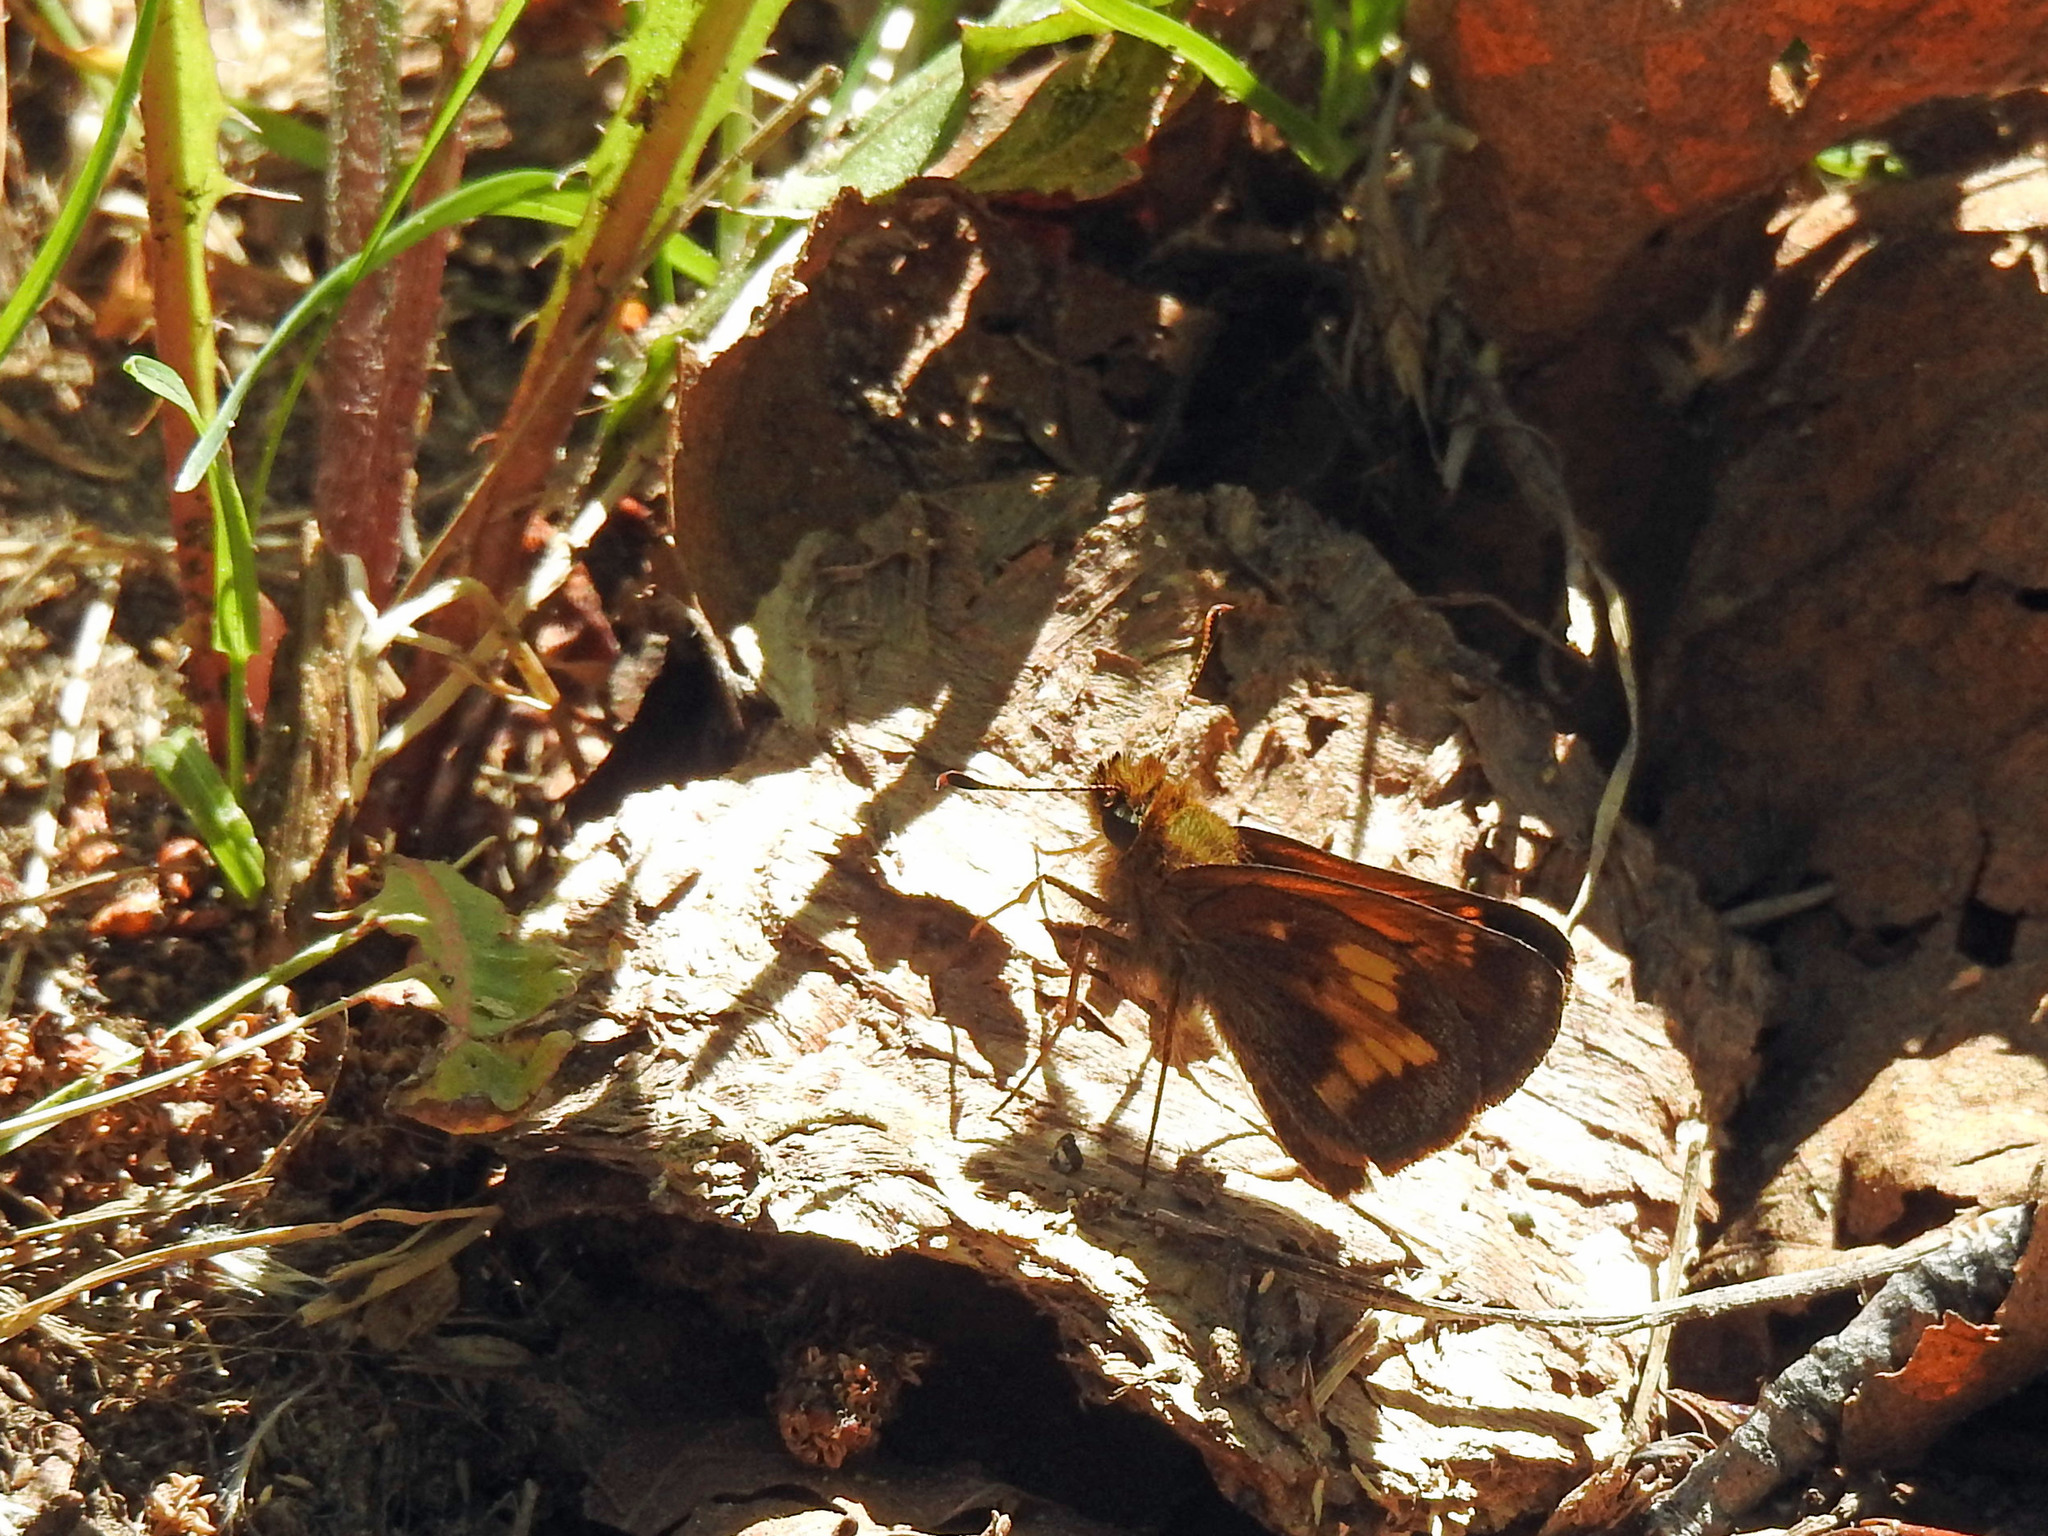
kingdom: Animalia
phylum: Arthropoda
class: Insecta
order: Lepidoptera
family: Hesperiidae
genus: Lon
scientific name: Lon hobomok
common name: Hobomok skipper
